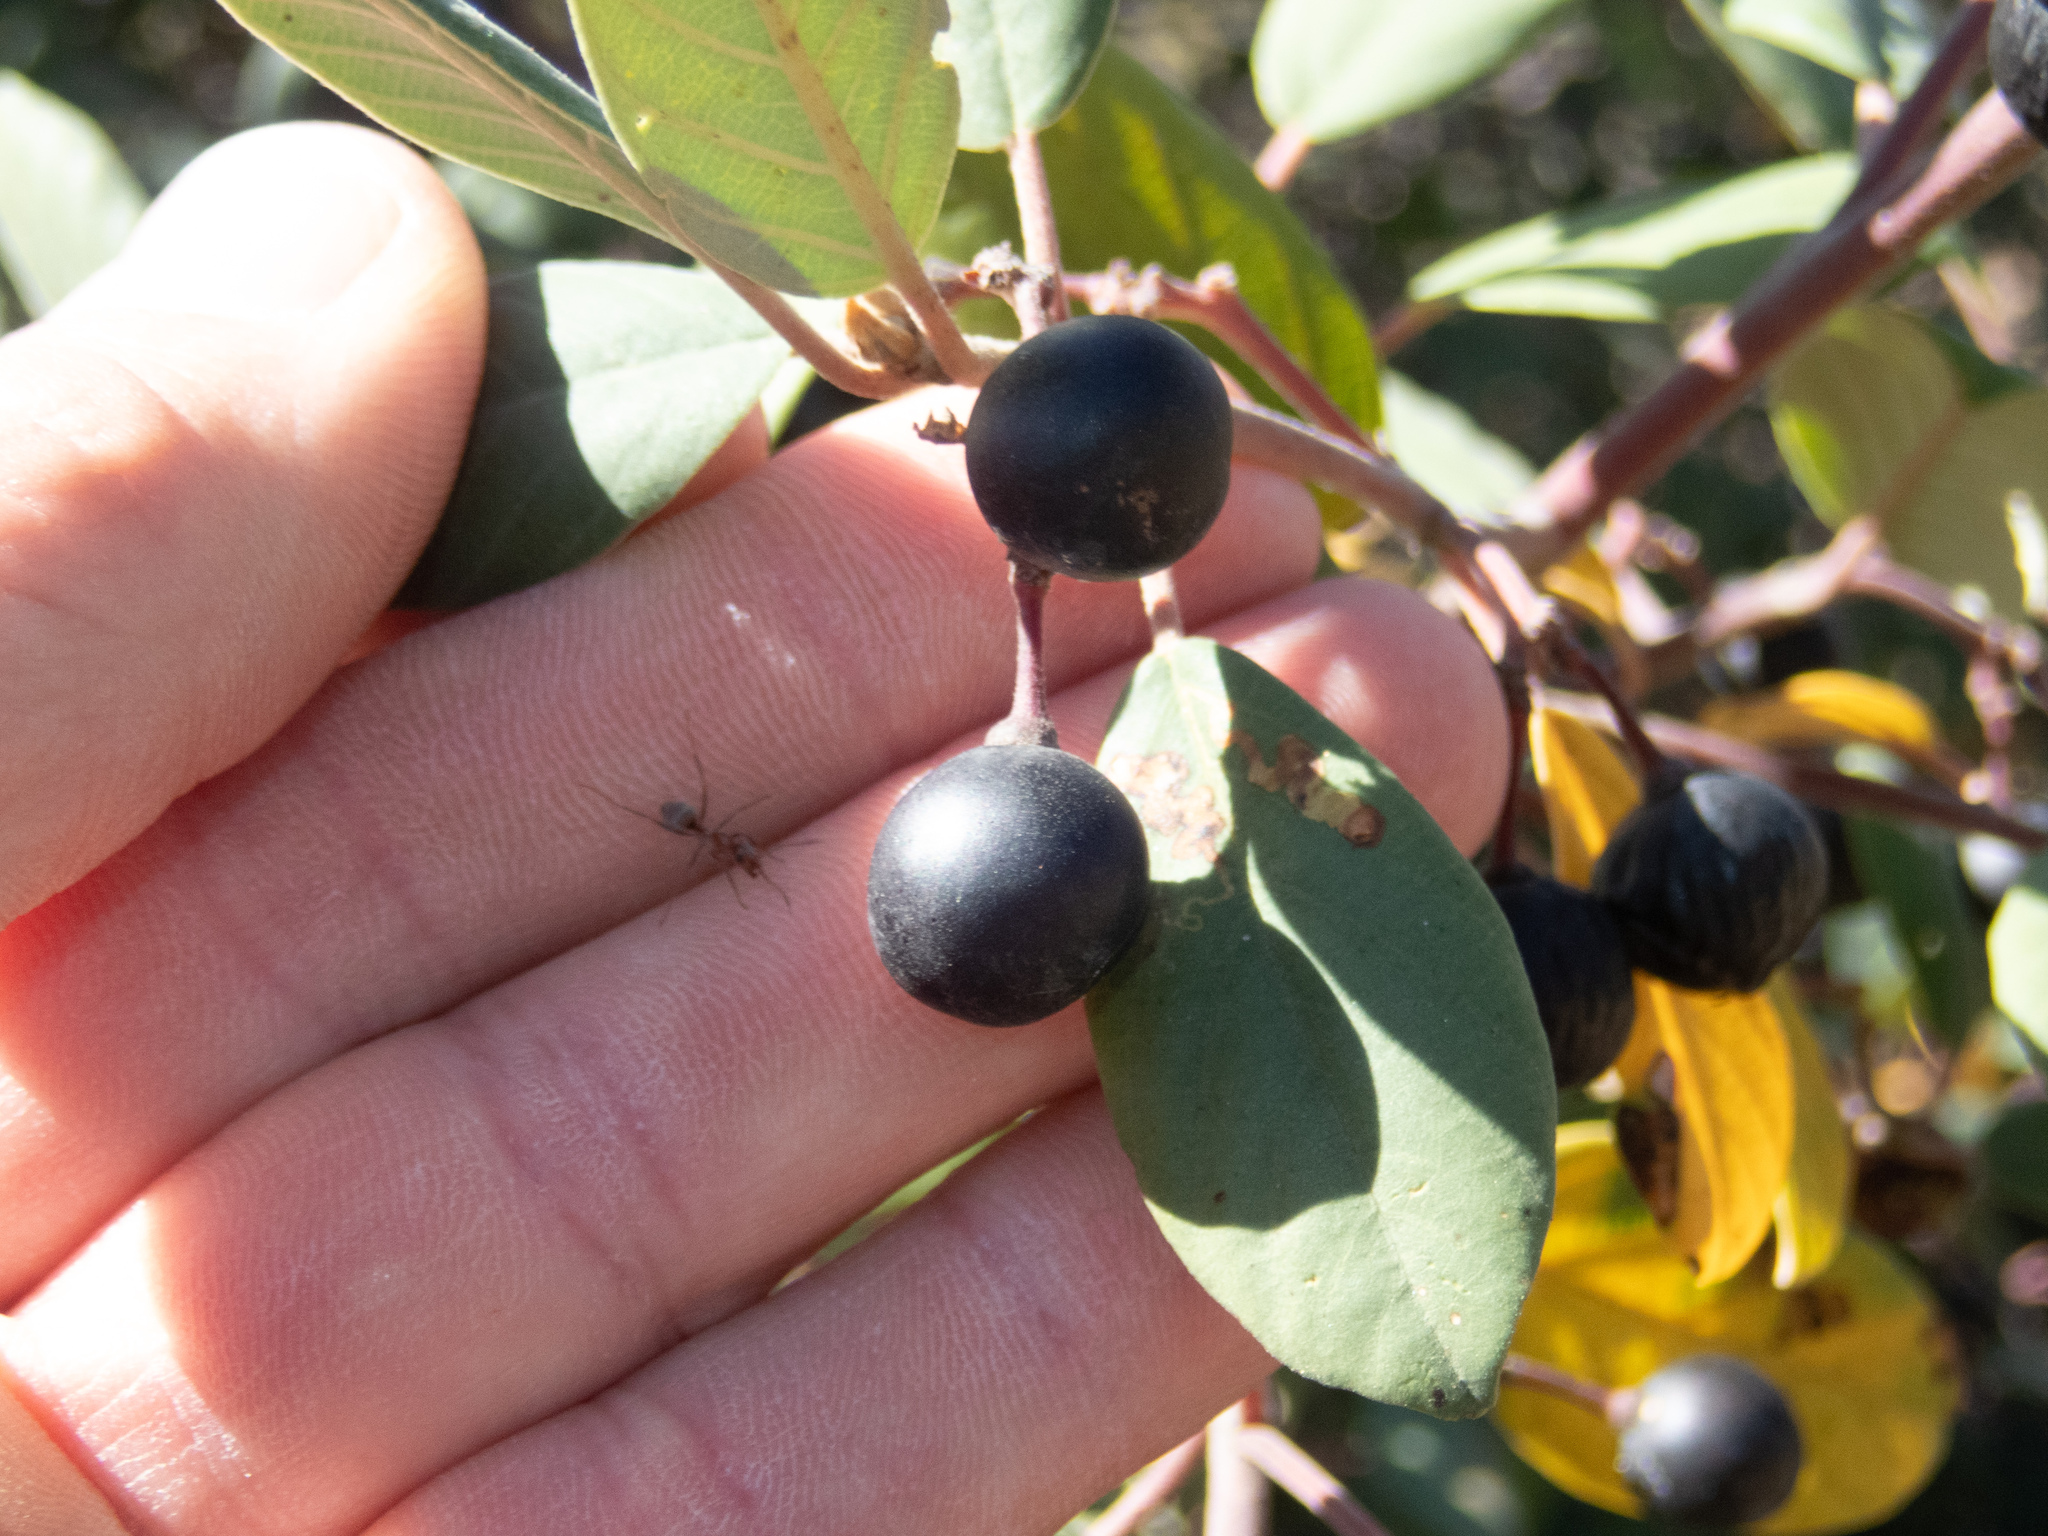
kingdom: Plantae
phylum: Tracheophyta
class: Magnoliopsida
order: Rosales
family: Rhamnaceae
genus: Frangula
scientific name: Frangula californica
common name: California buckthorn
